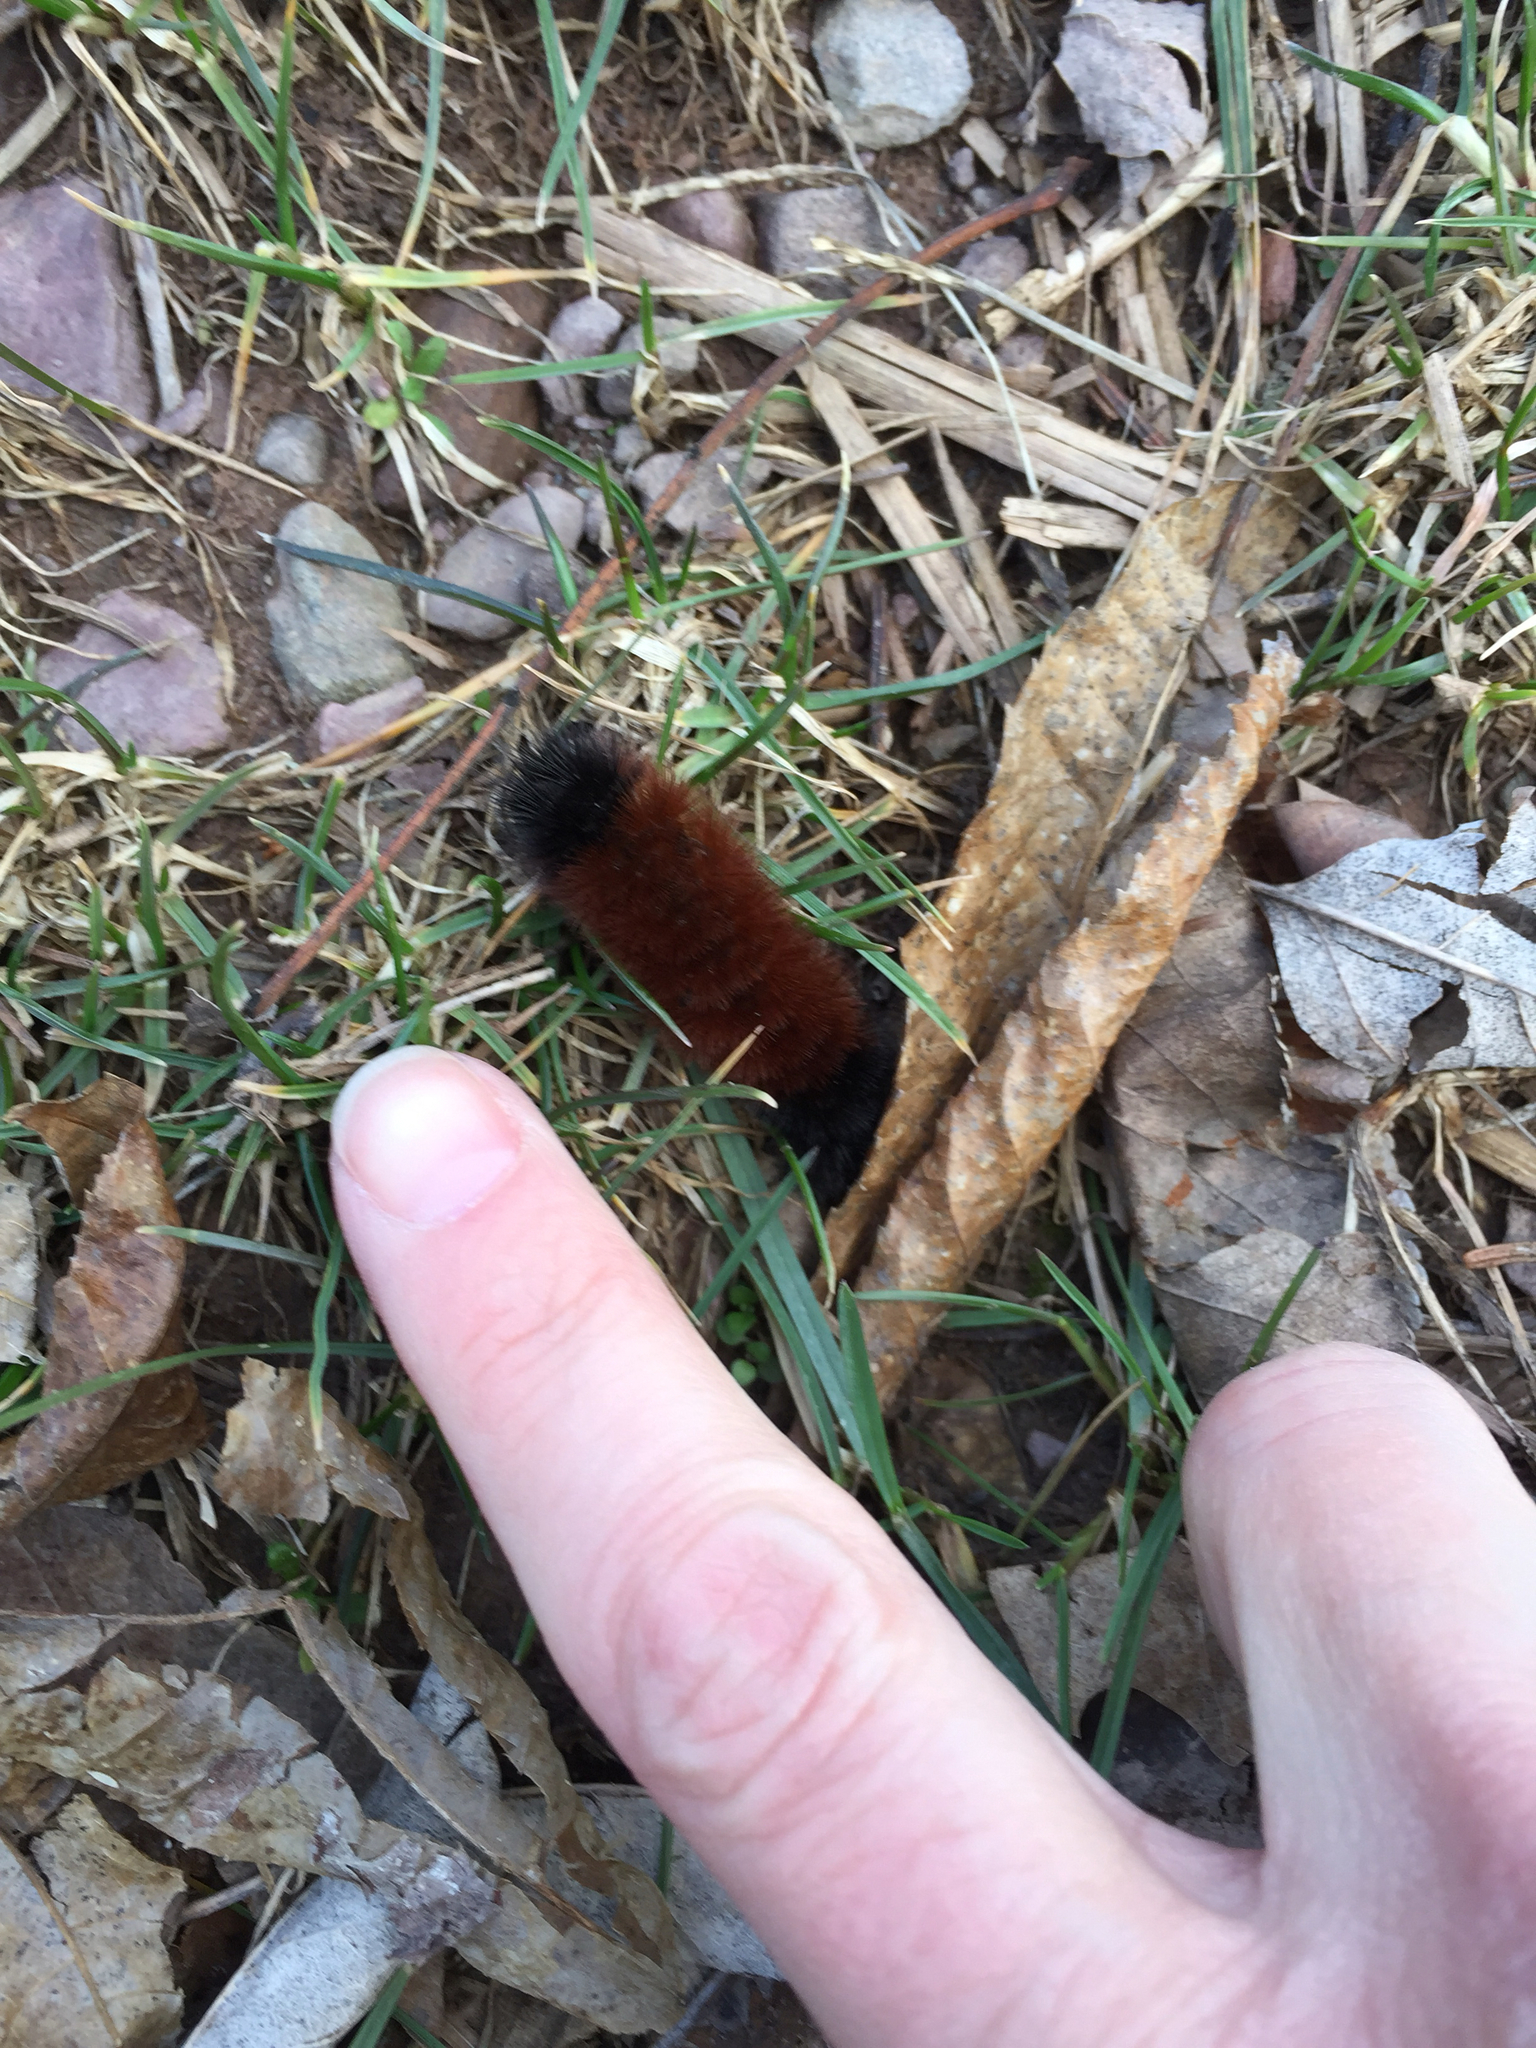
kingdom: Animalia
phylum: Arthropoda
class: Insecta
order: Lepidoptera
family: Erebidae
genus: Pyrrharctia
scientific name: Pyrrharctia isabella
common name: Isabella tiger moth
